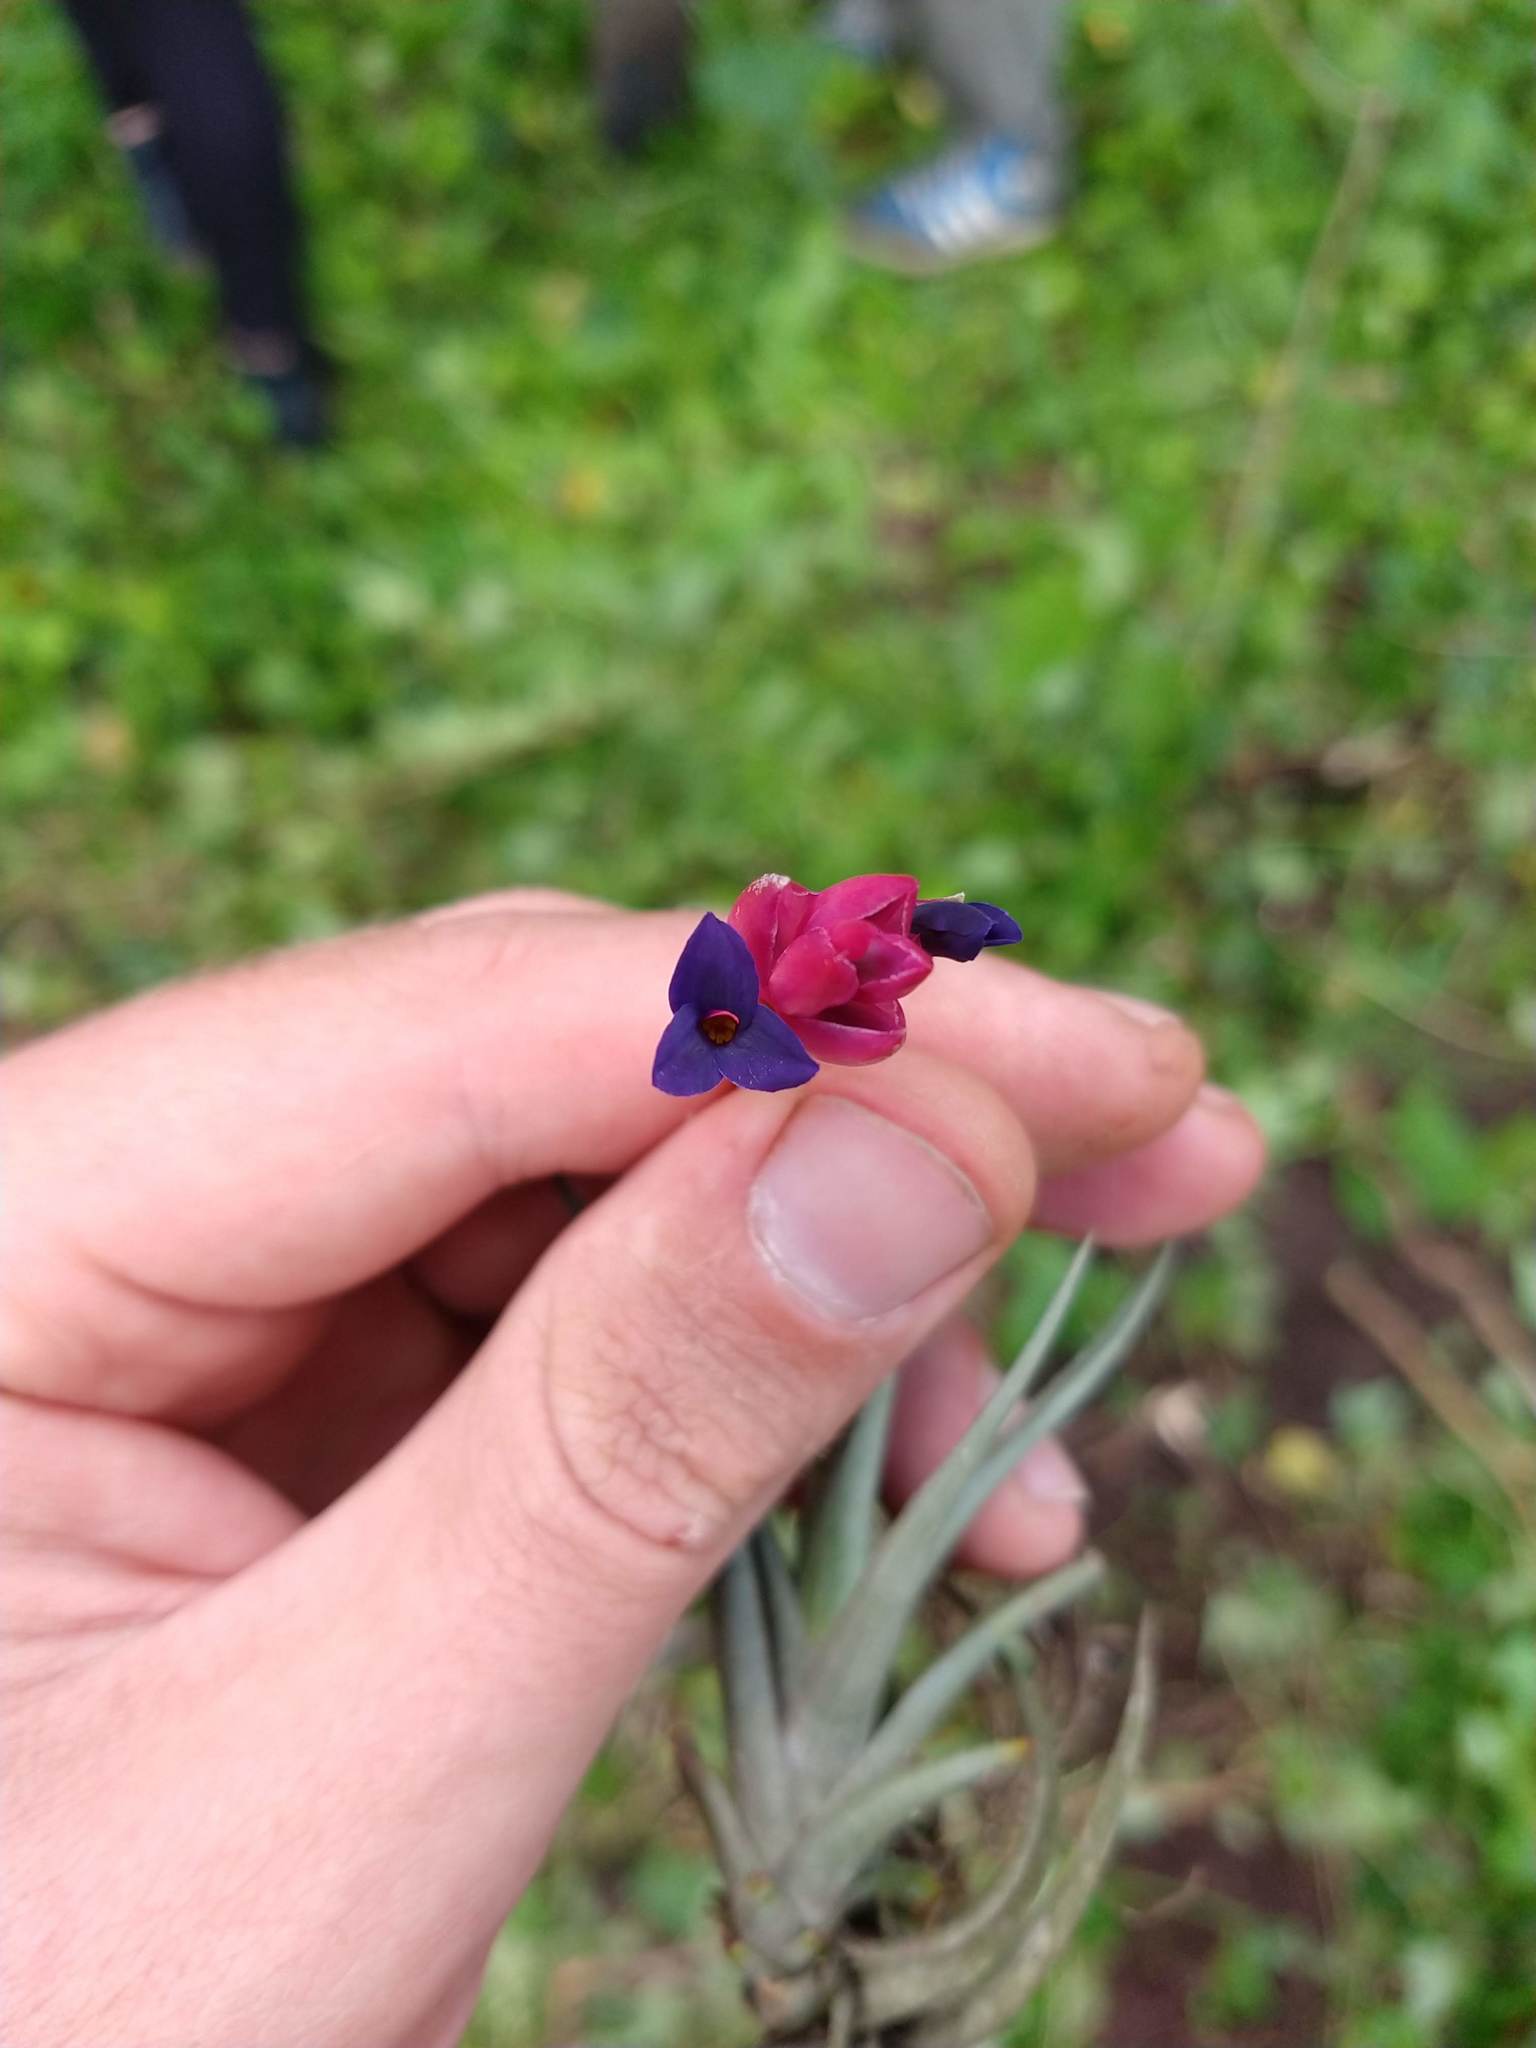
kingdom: Plantae
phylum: Tracheophyta
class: Liliopsida
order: Poales
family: Bromeliaceae
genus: Tillandsia
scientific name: Tillandsia aeranthos
